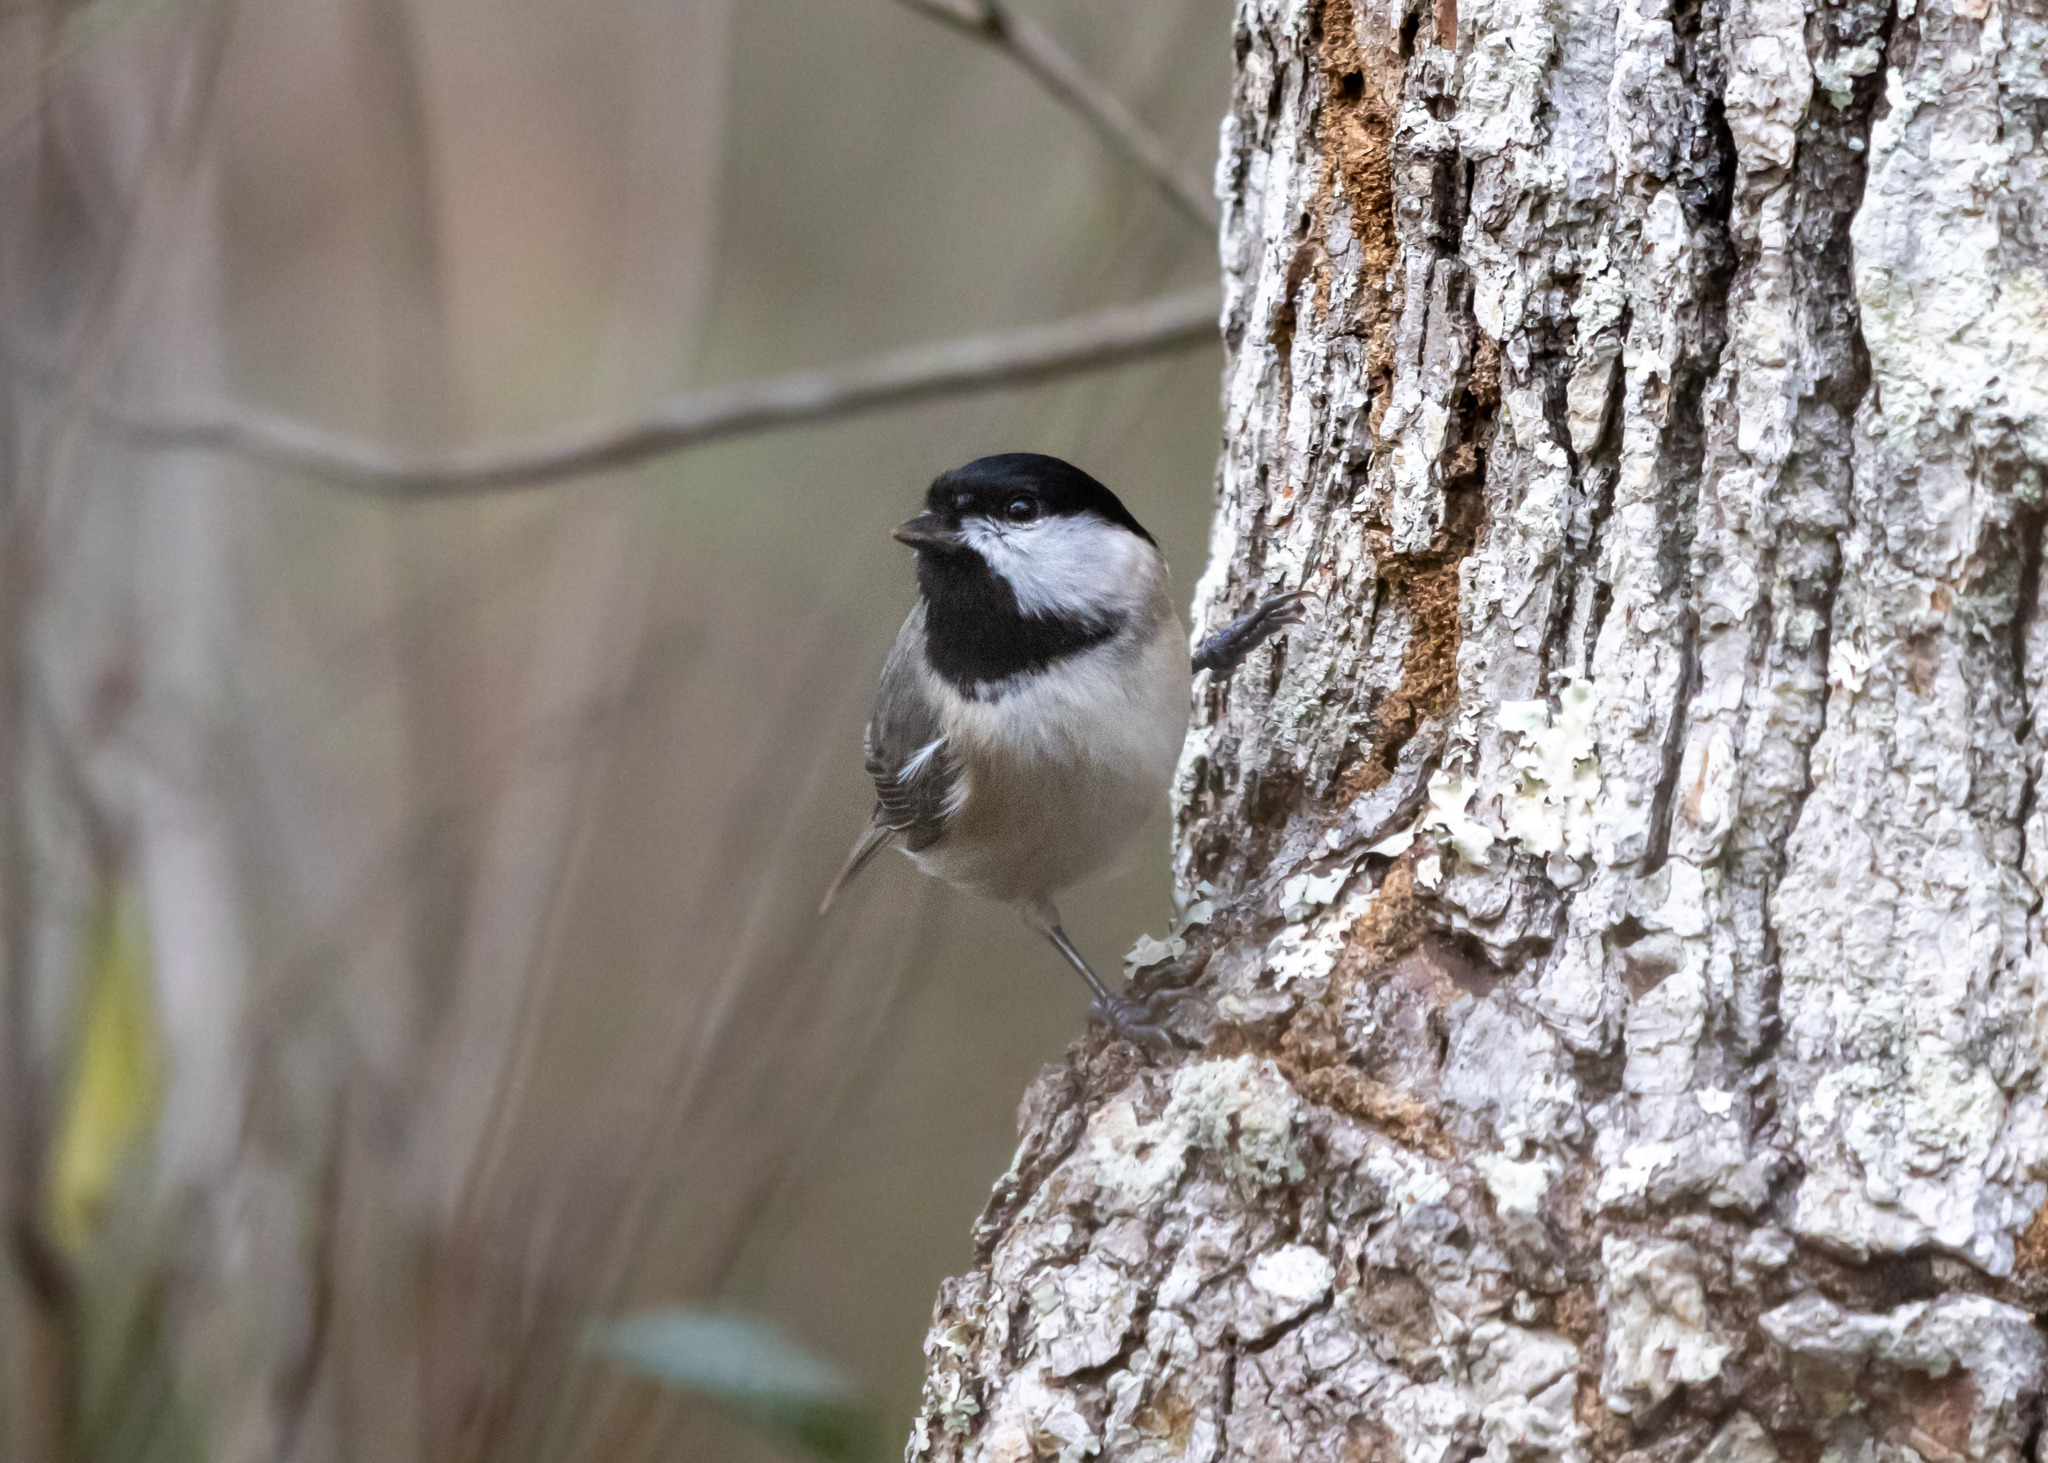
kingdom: Animalia
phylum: Chordata
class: Aves
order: Passeriformes
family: Paridae
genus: Poecile
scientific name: Poecile carolinensis
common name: Carolina chickadee
